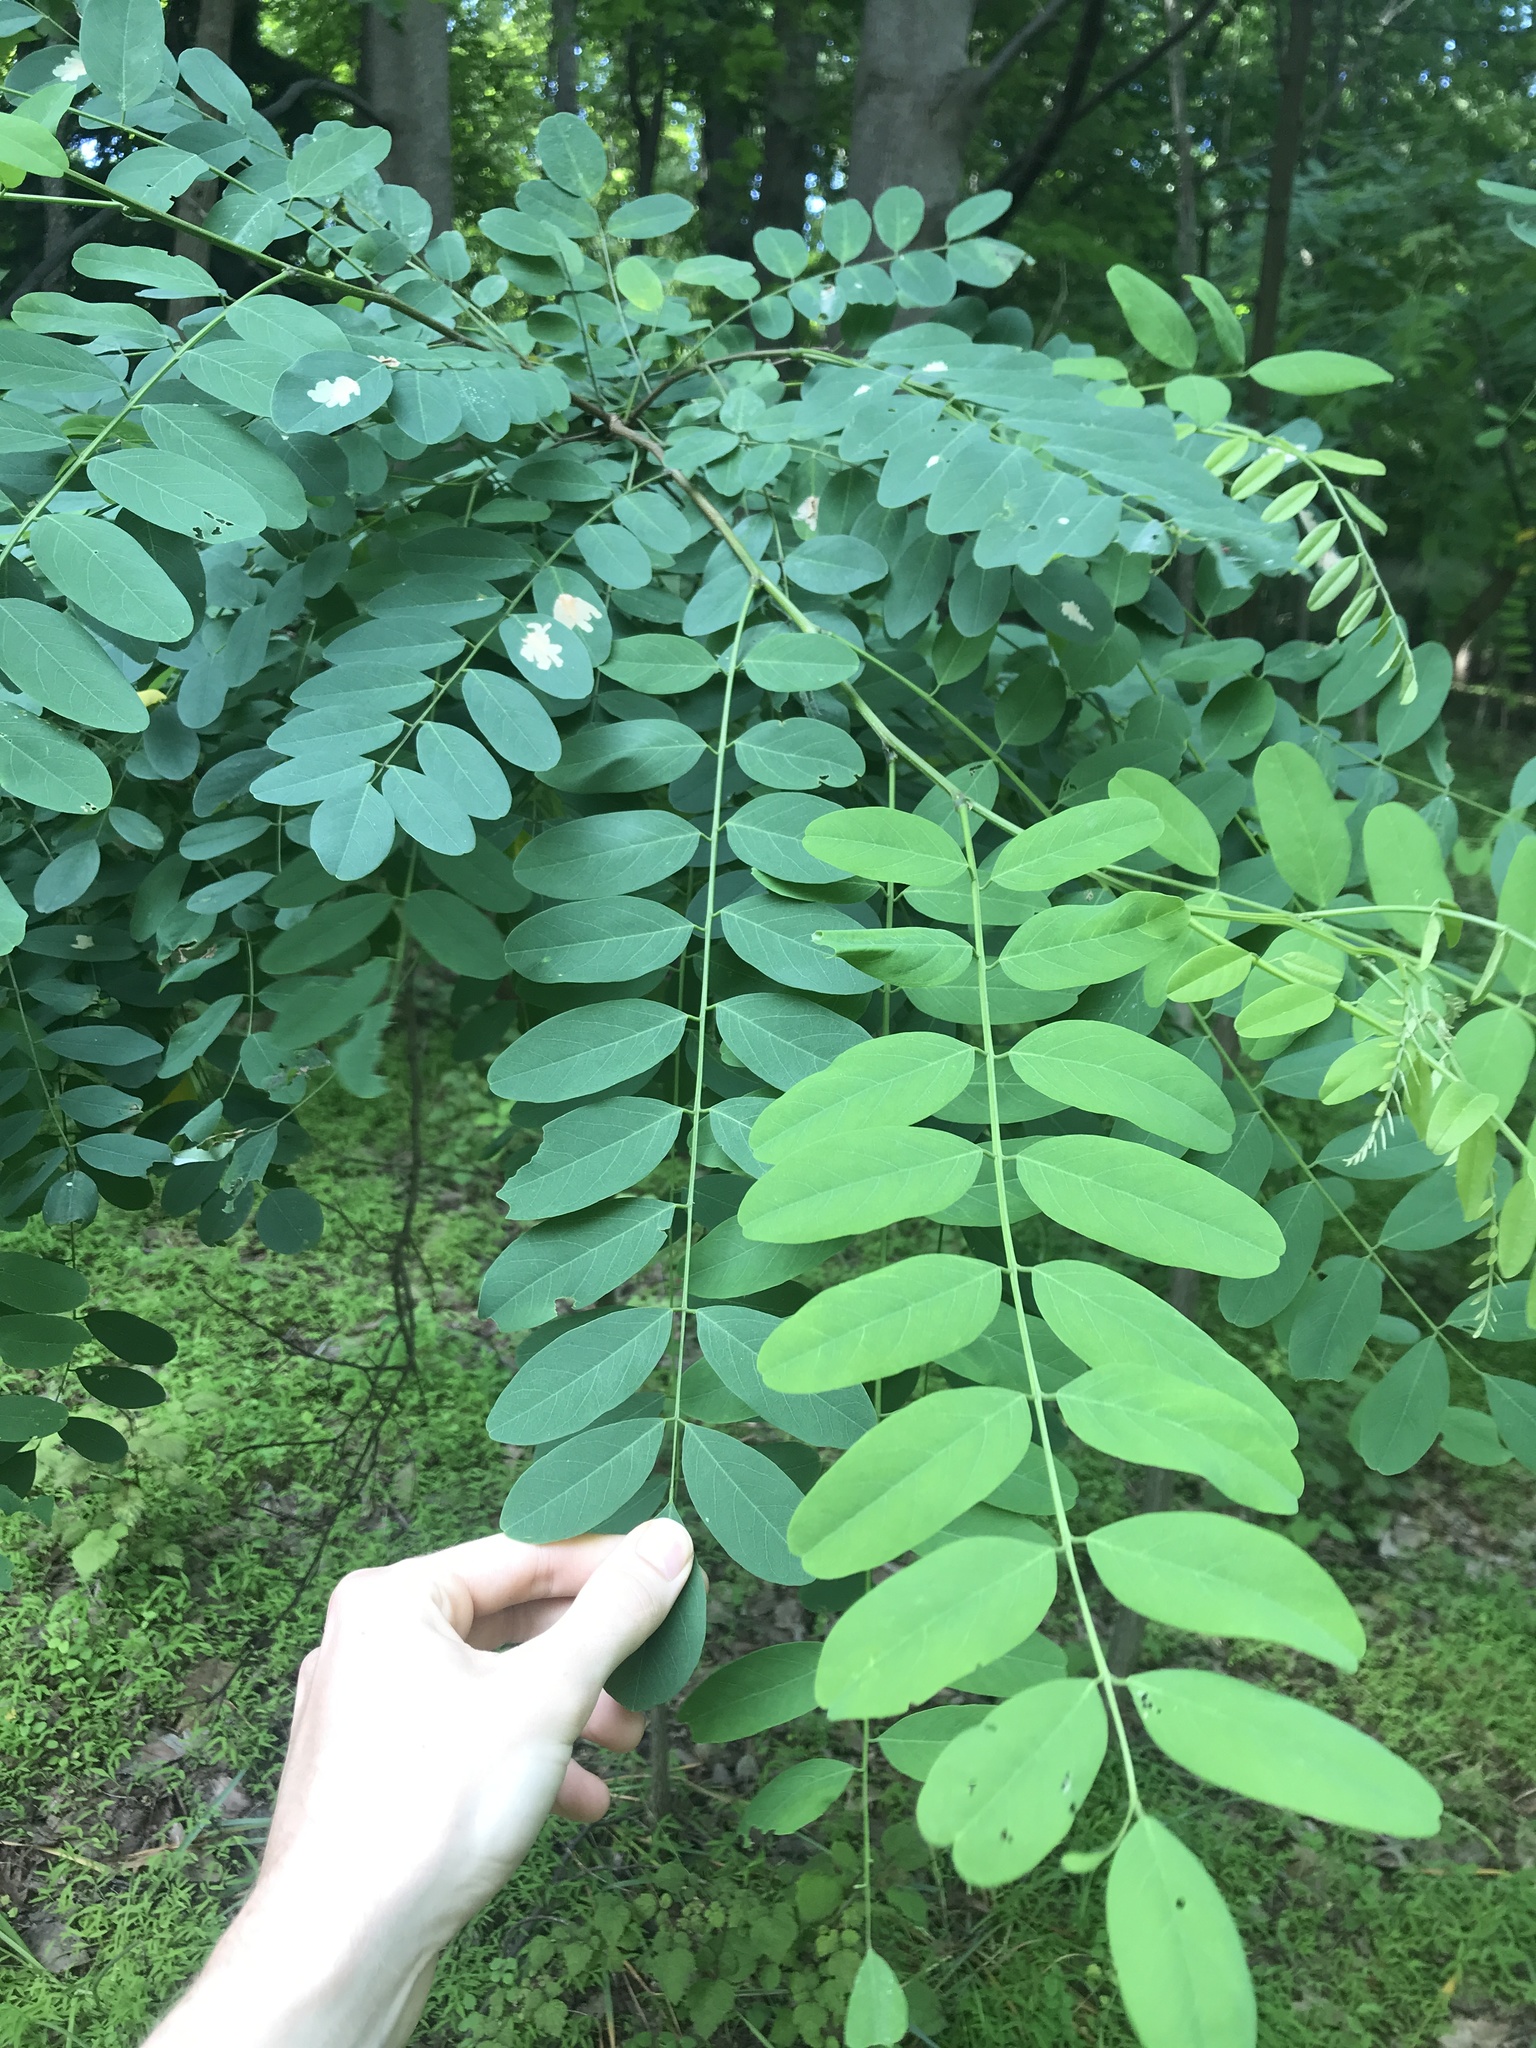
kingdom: Plantae
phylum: Tracheophyta
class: Magnoliopsida
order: Fabales
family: Fabaceae
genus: Robinia
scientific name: Robinia pseudoacacia
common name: Black locust
